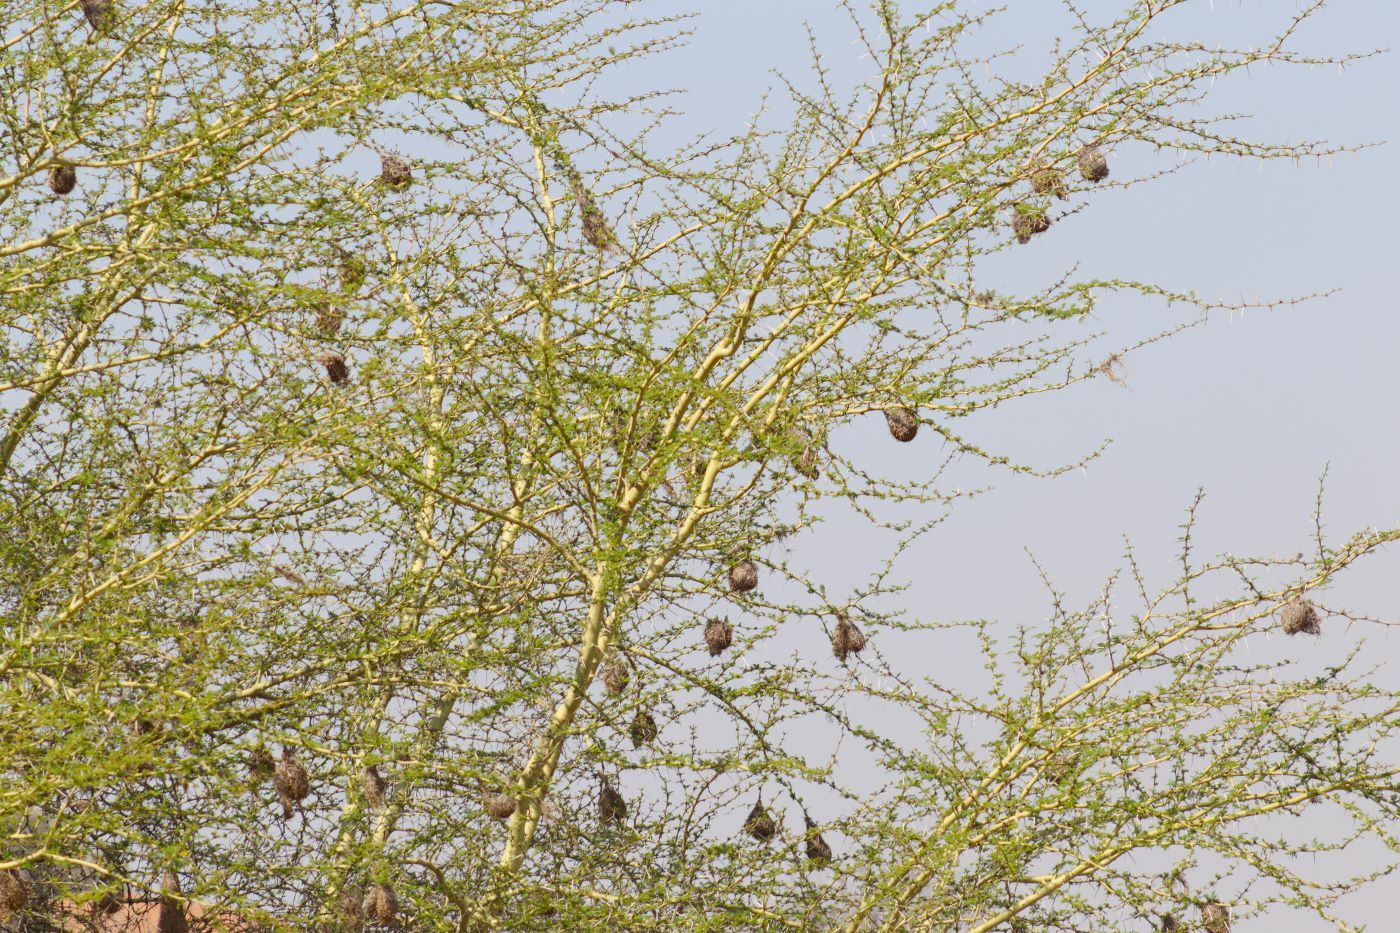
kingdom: Plantae
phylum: Tracheophyta
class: Magnoliopsida
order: Fabales
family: Fabaceae
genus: Vachellia
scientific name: Vachellia xanthophloea
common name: Fever tree
